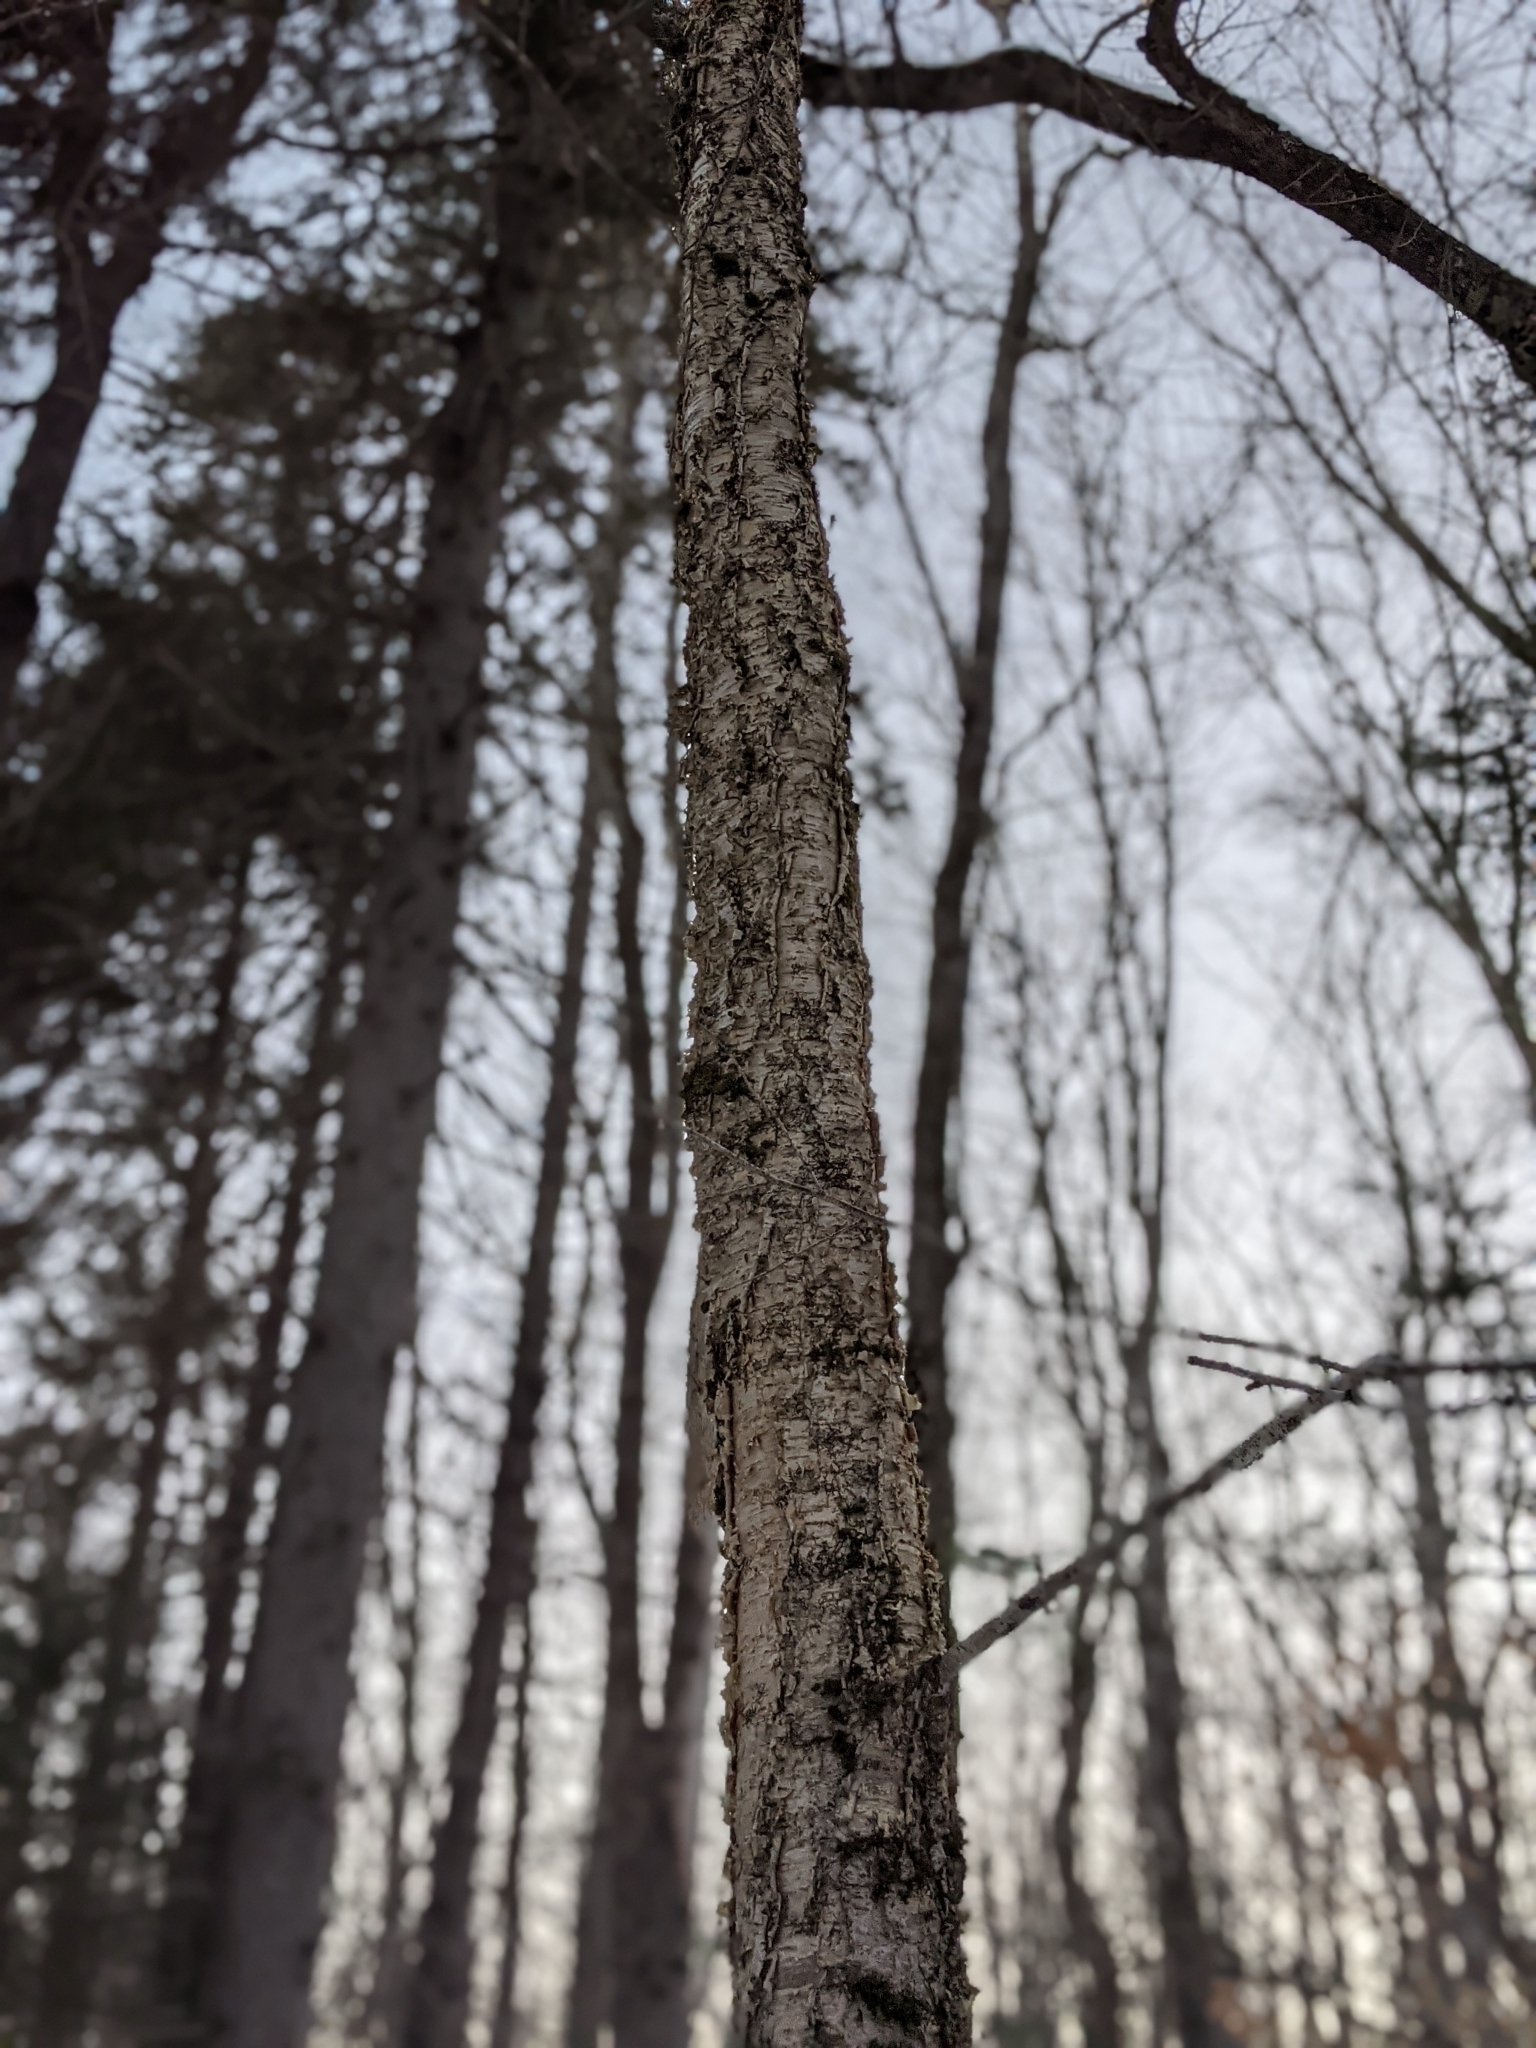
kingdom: Plantae
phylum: Tracheophyta
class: Magnoliopsida
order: Fagales
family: Betulaceae
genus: Betula
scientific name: Betula alleghaniensis
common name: Yellow birch
